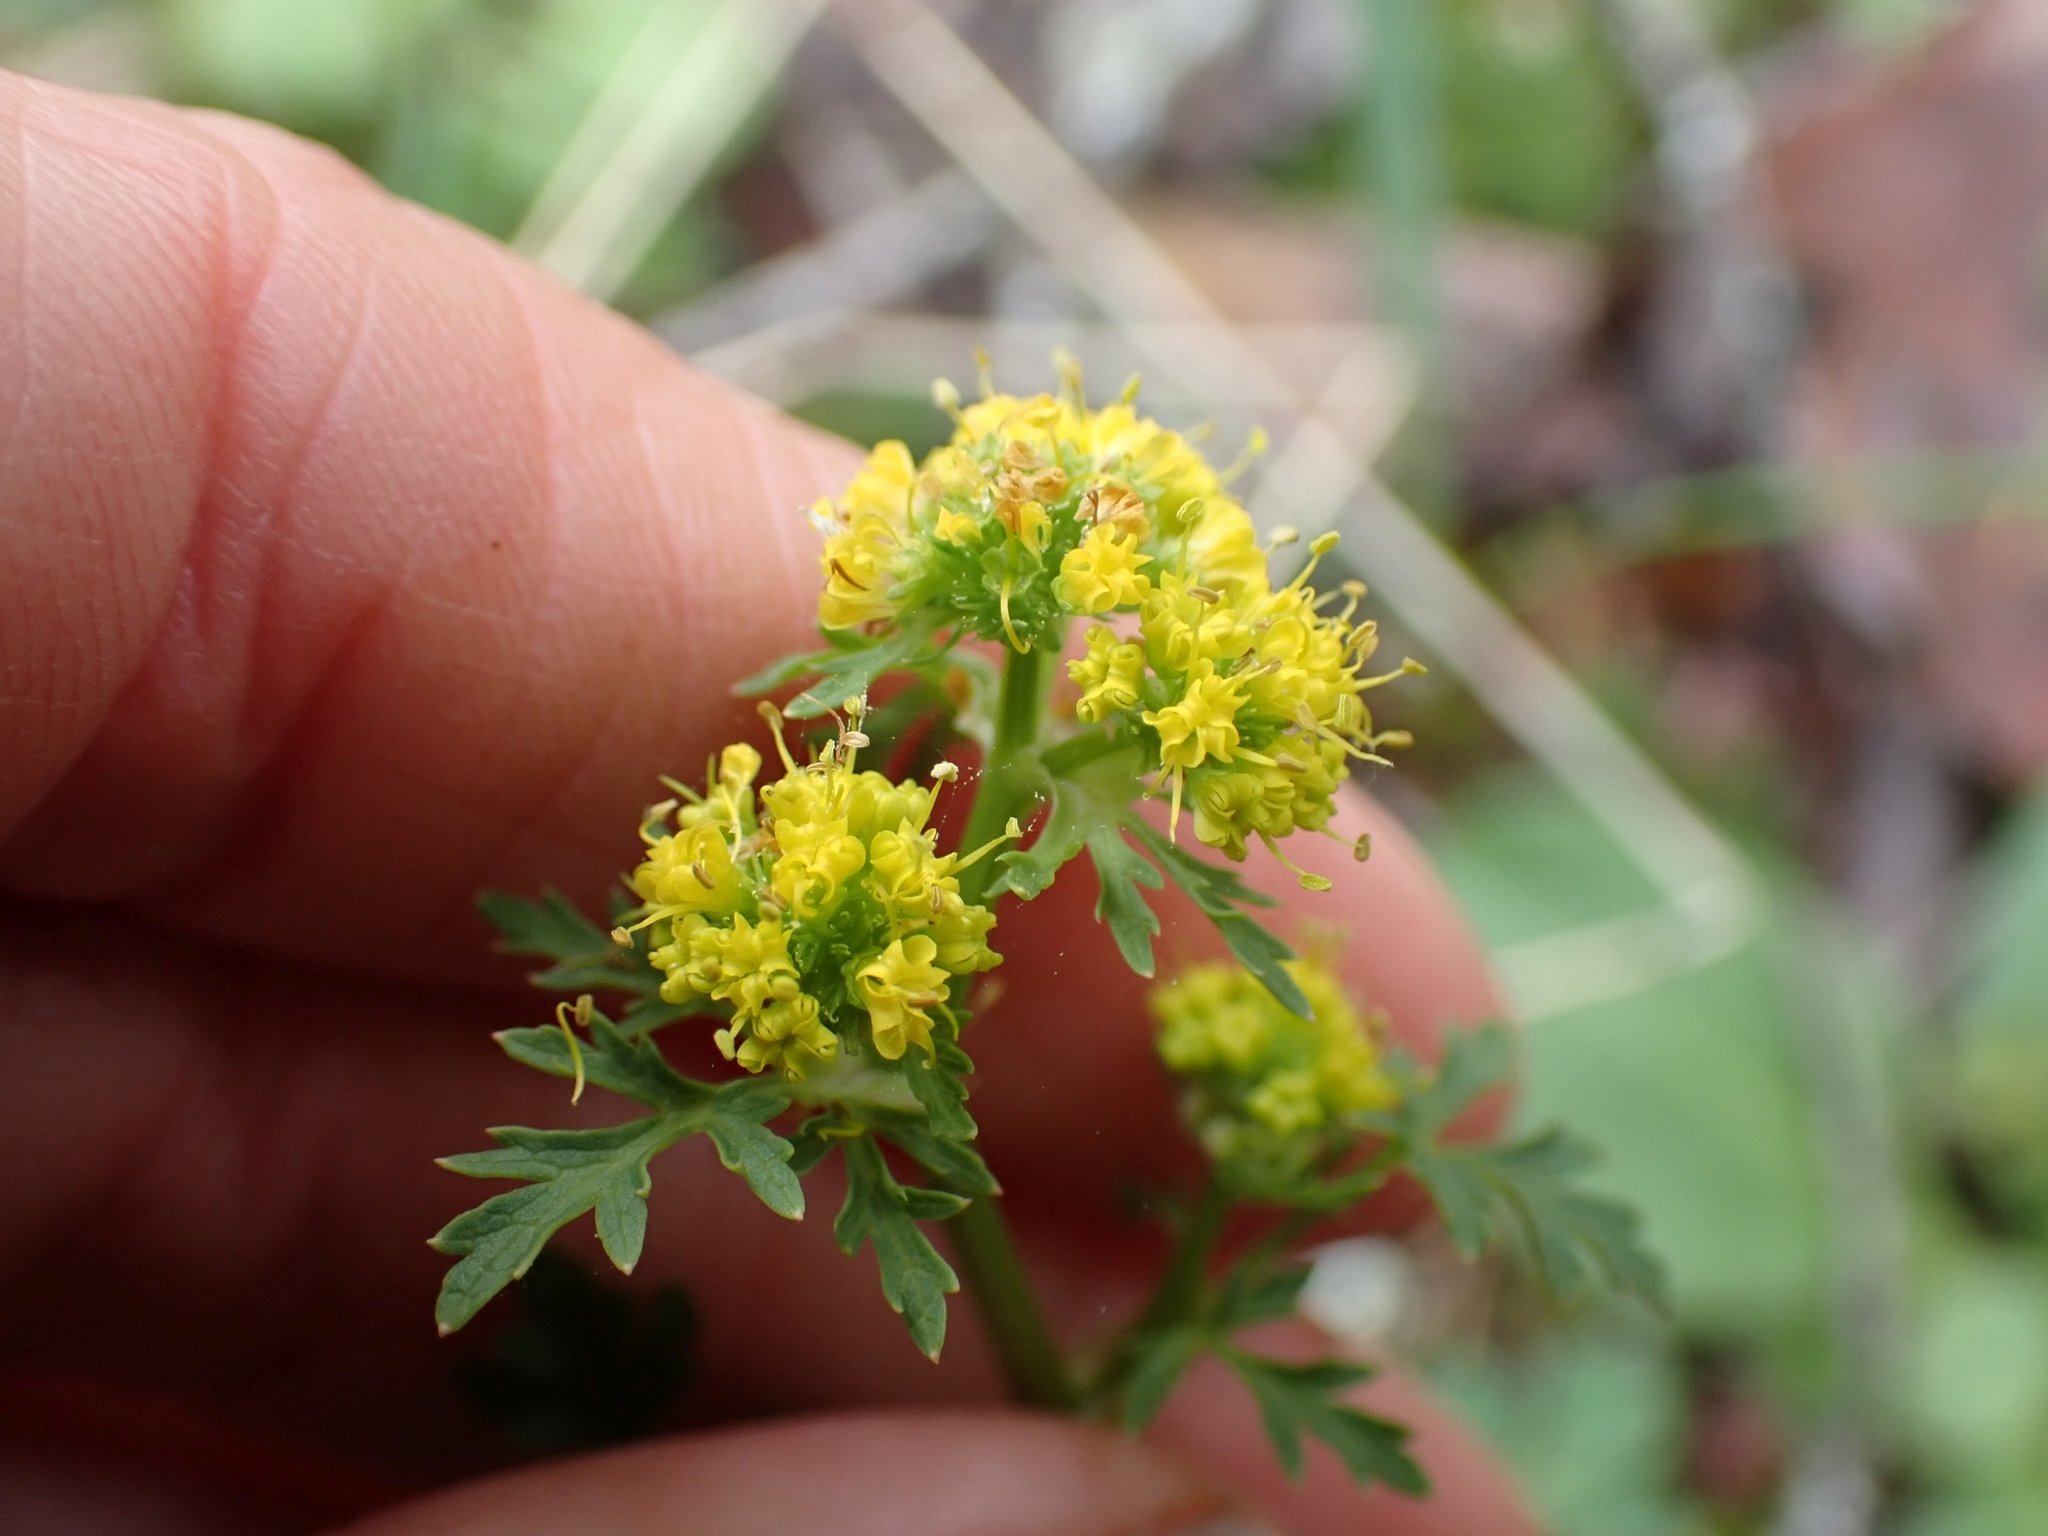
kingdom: Plantae
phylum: Tracheophyta
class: Magnoliopsida
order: Apiales
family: Apiaceae
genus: Sanicula
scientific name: Sanicula graveolens
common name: Sierra sanicle
